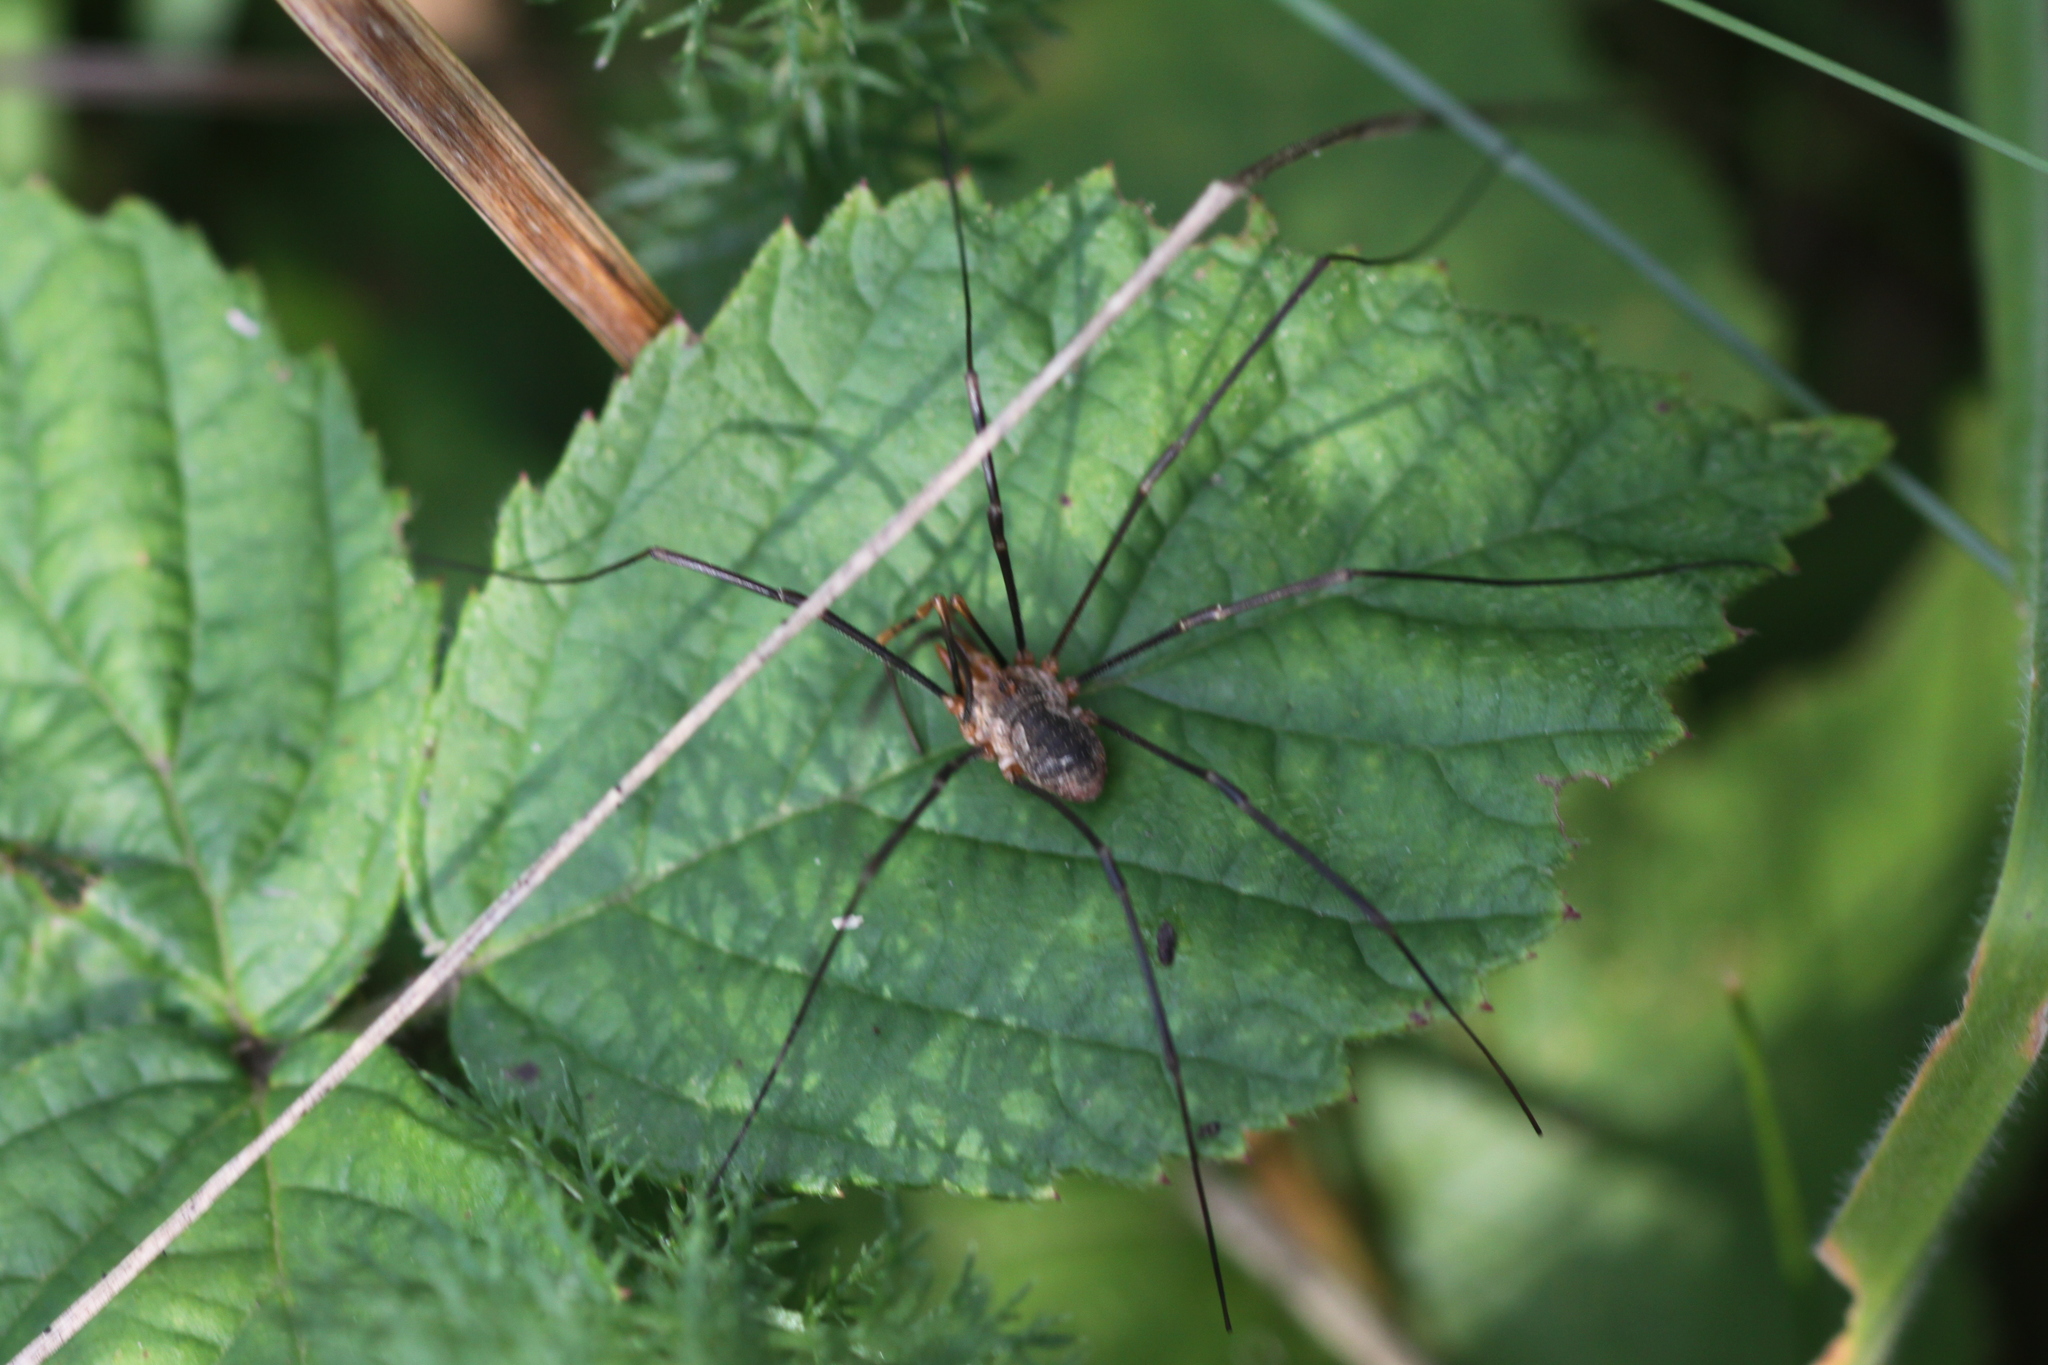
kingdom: Animalia
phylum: Arthropoda
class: Arachnida
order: Opiliones
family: Phalangiidae
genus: Phalangium
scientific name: Phalangium opilio
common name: Daddy longleg
